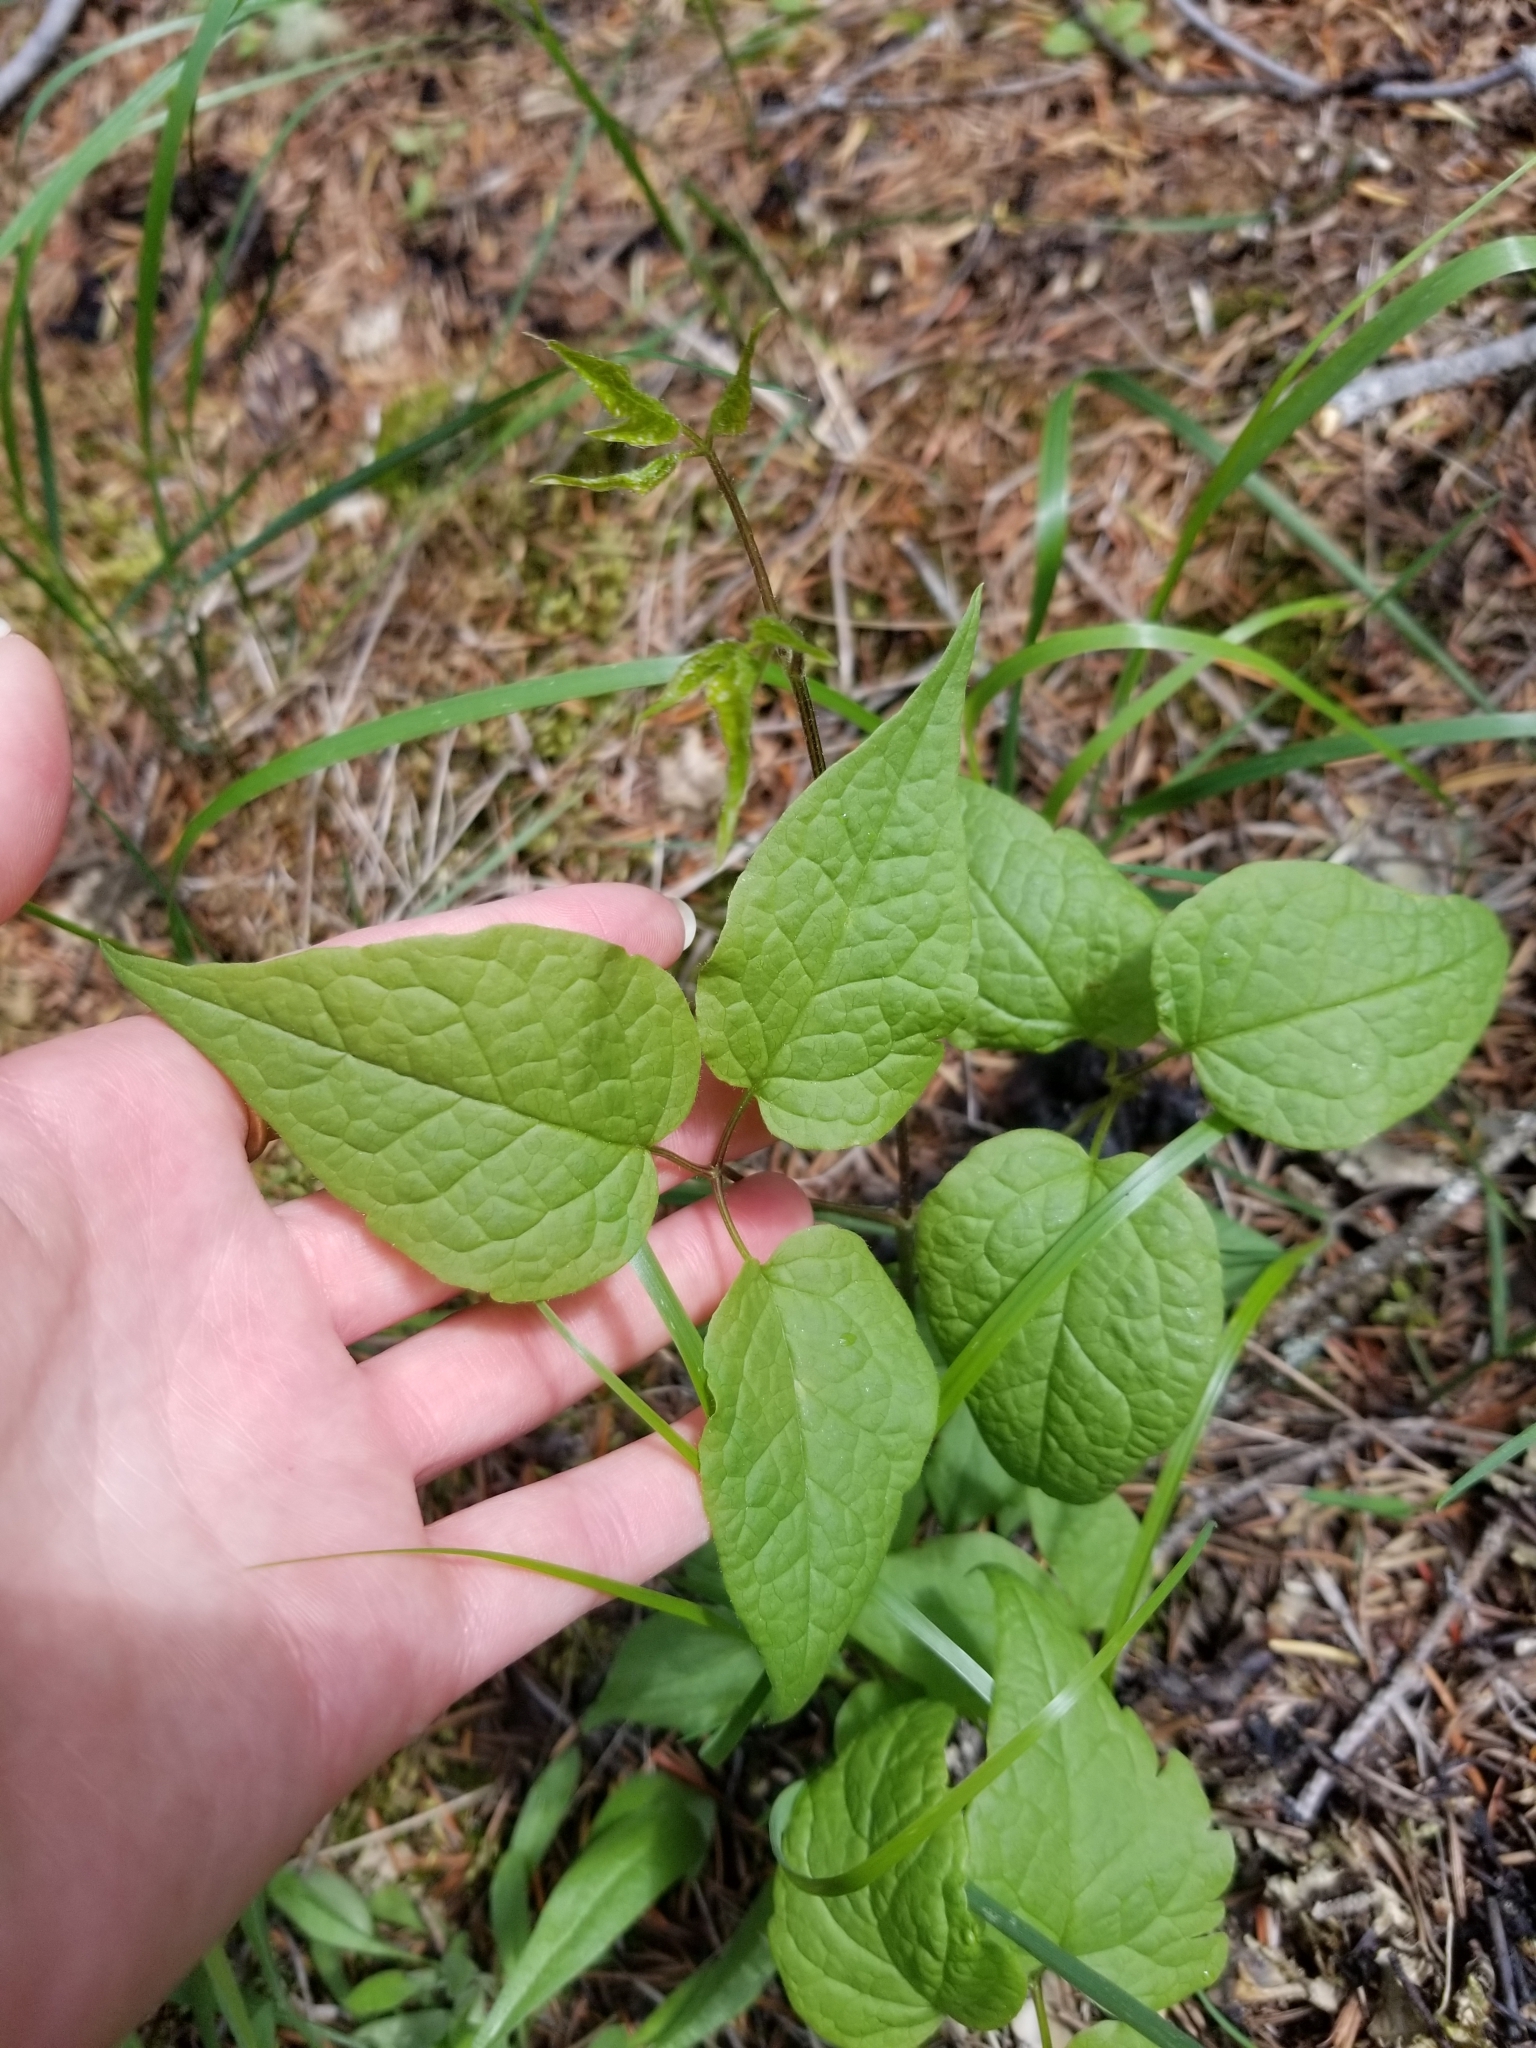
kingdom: Plantae
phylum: Tracheophyta
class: Magnoliopsida
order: Ranunculales
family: Ranunculaceae
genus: Clematis
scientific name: Clematis occidentalis
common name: Purple clematis
